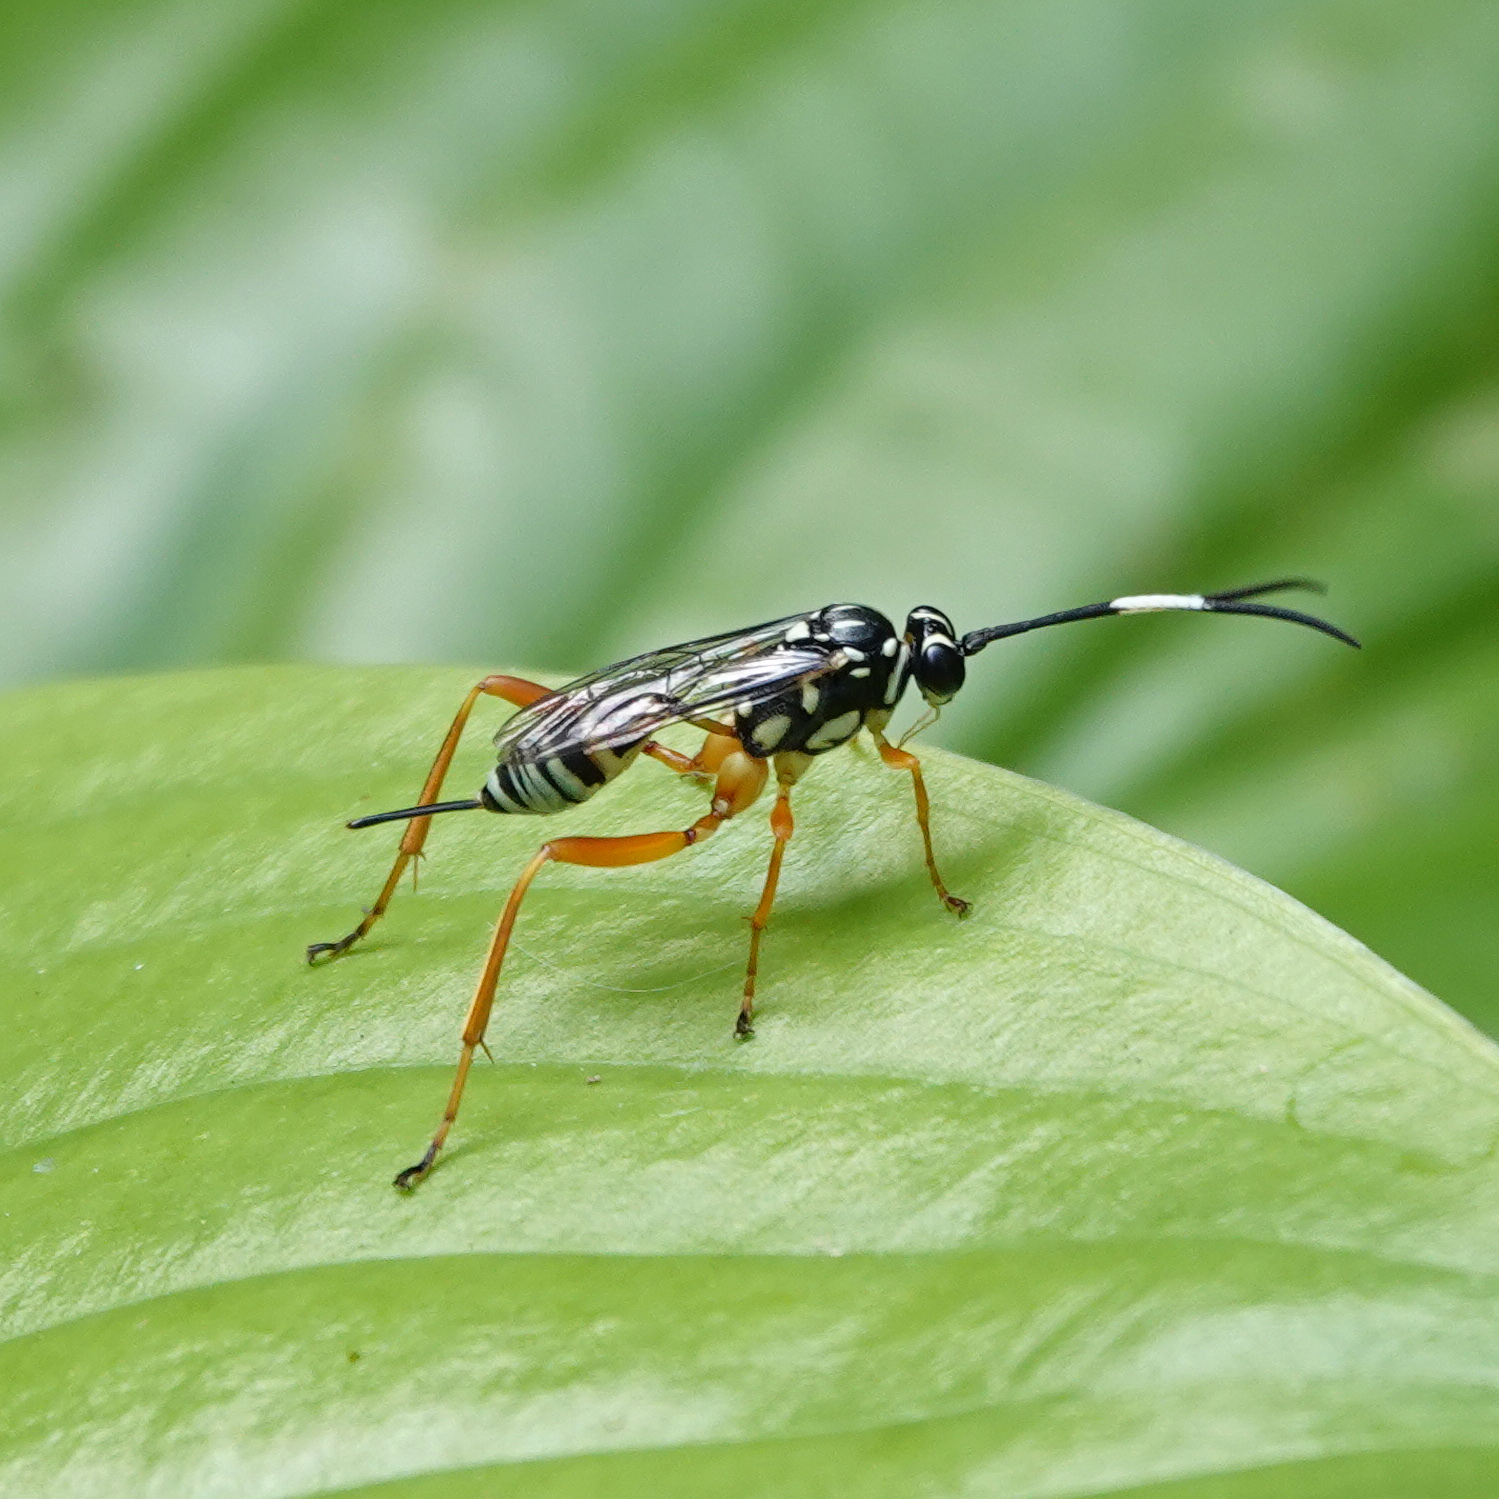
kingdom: Animalia
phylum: Arthropoda
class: Insecta
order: Hymenoptera
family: Ichneumonidae
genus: Baryceros
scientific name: Baryceros texanus
